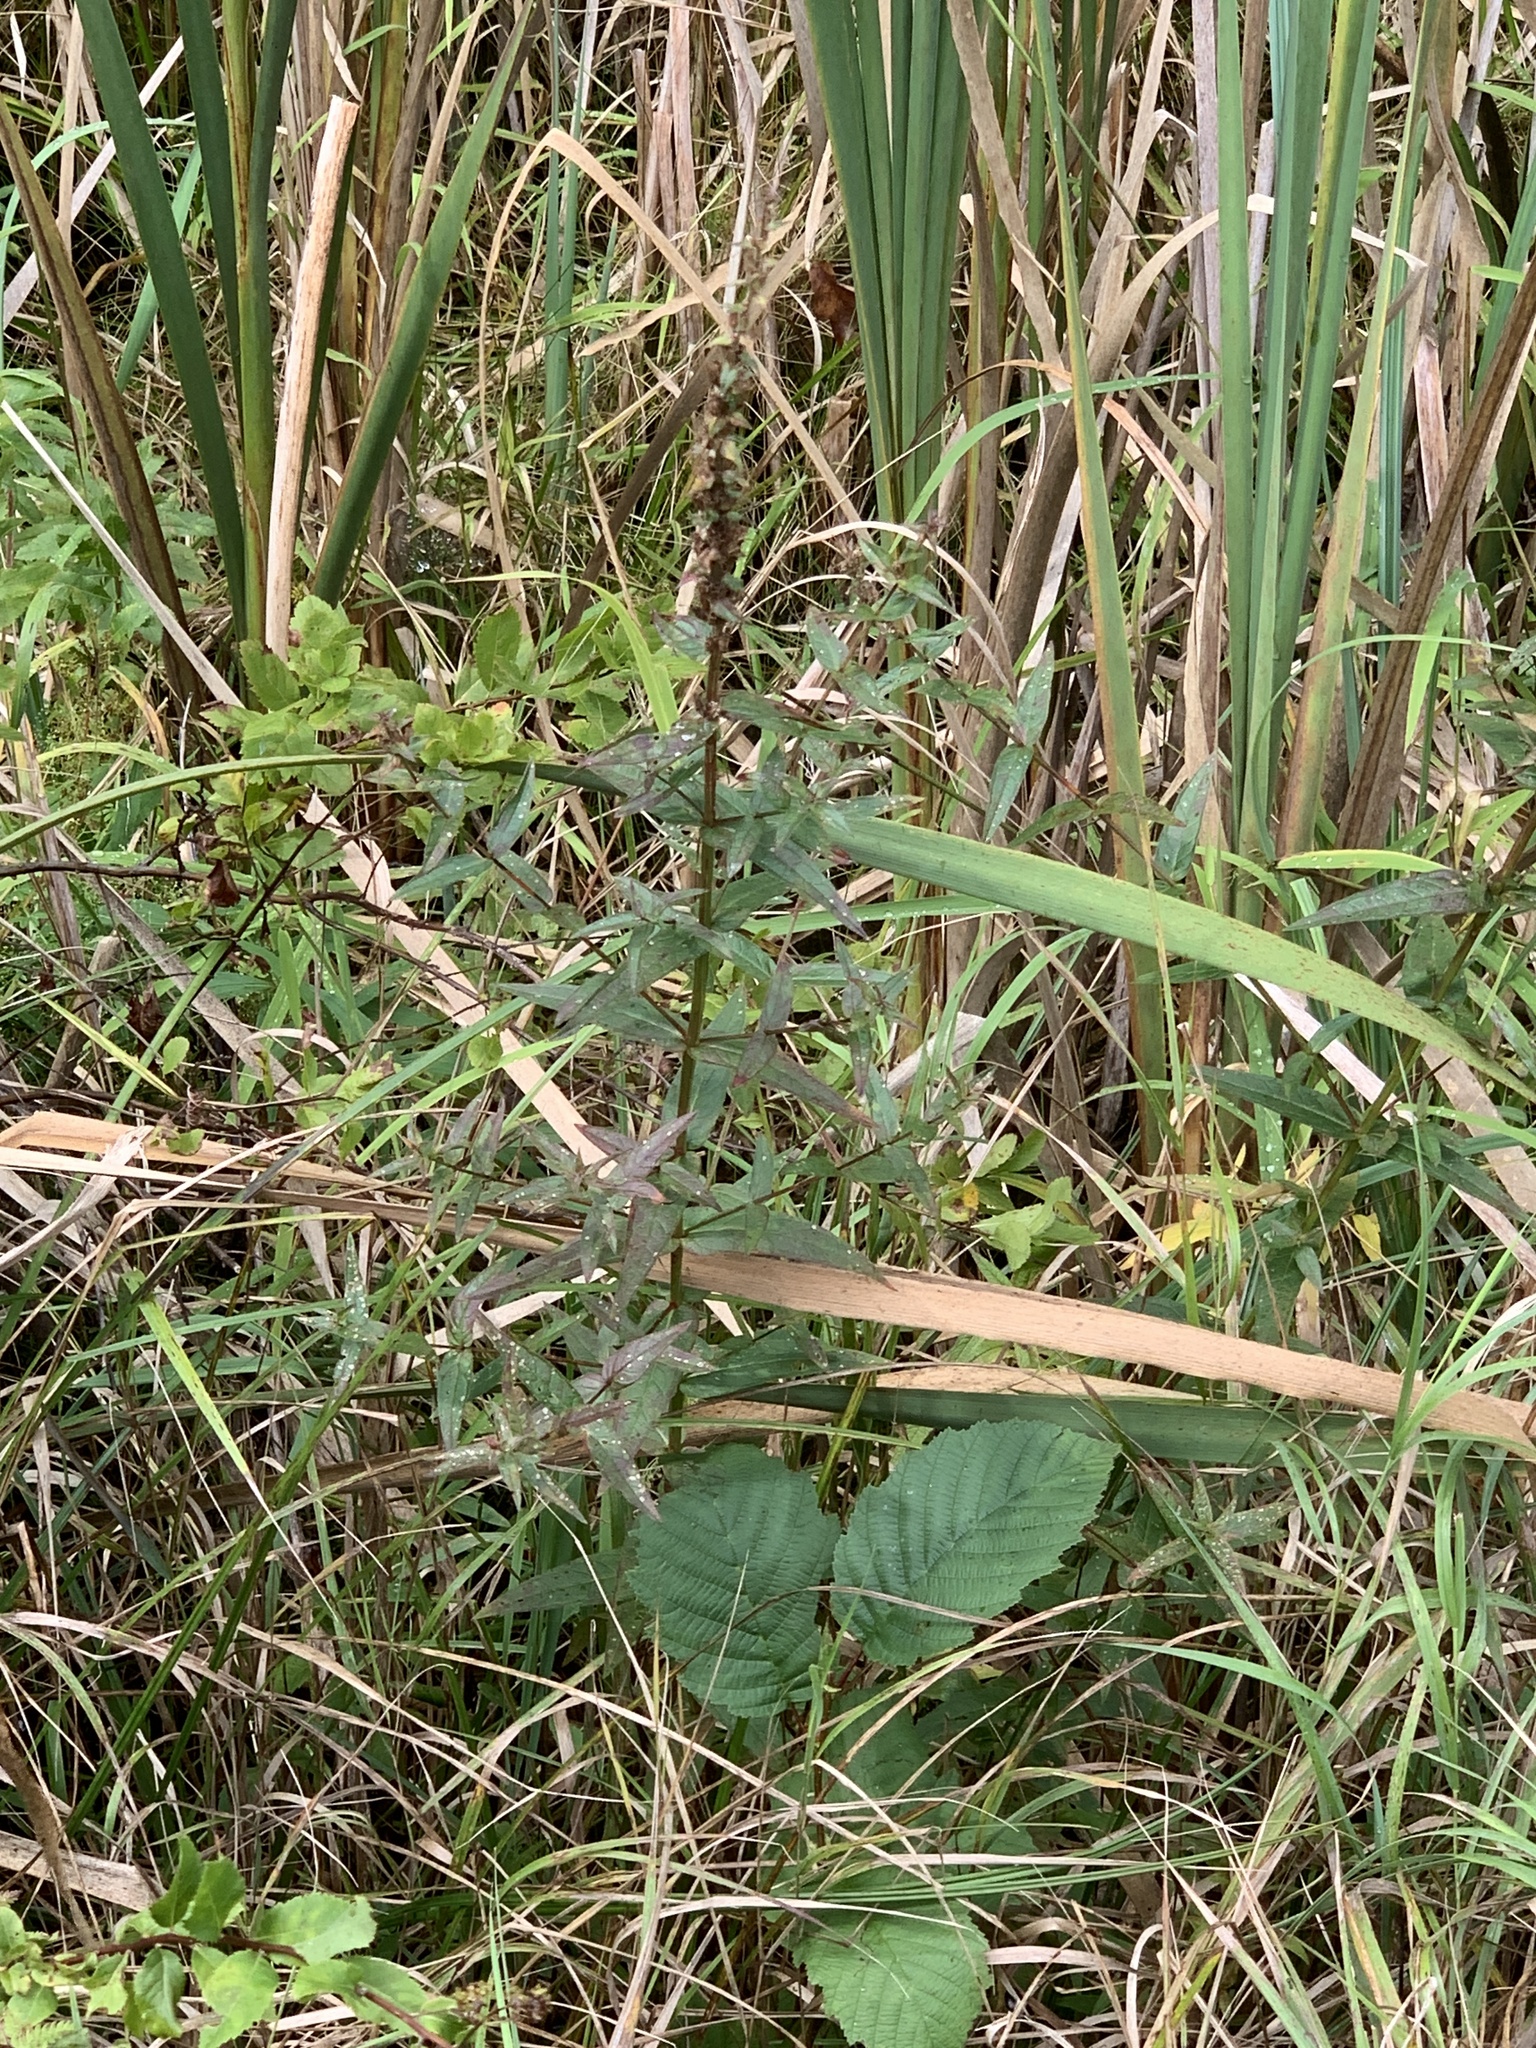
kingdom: Plantae
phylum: Tracheophyta
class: Magnoliopsida
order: Myrtales
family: Lythraceae
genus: Lythrum
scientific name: Lythrum salicaria
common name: Purple loosestrife
